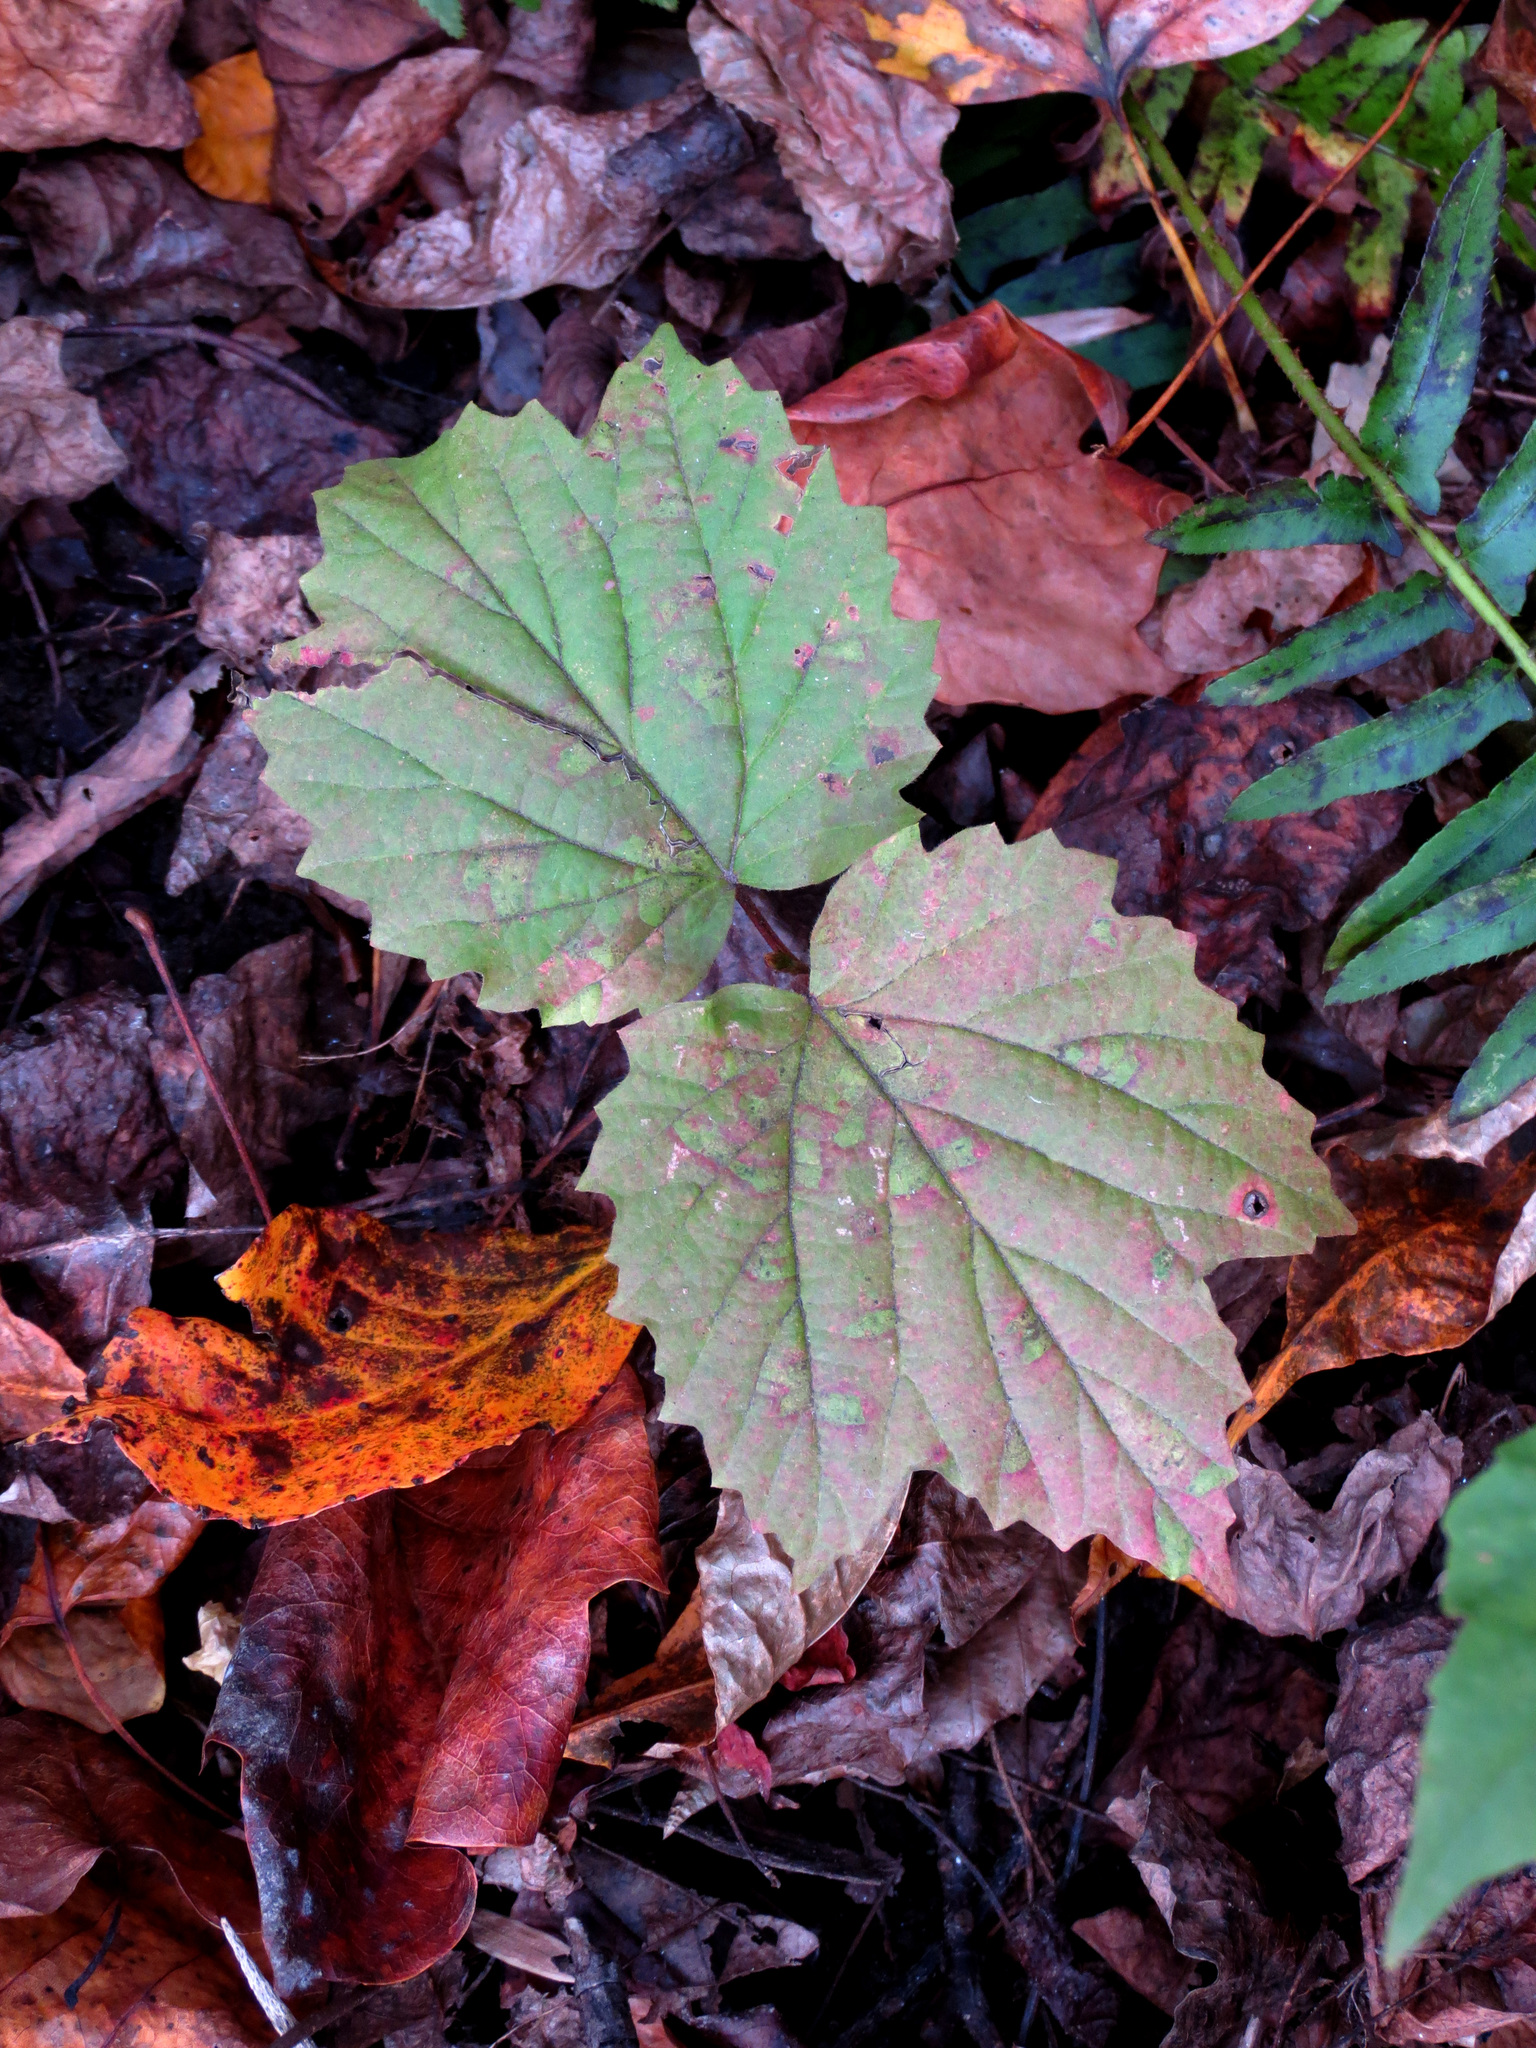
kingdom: Plantae
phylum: Tracheophyta
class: Magnoliopsida
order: Dipsacales
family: Viburnaceae
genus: Viburnum
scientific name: Viburnum acerifolium
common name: Dockmackie
